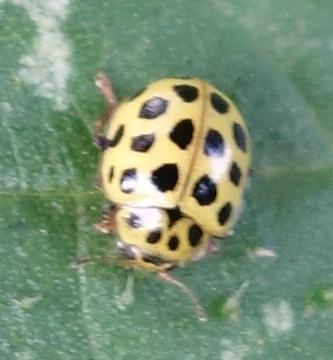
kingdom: Animalia
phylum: Arthropoda
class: Insecta
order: Coleoptera
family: Coccinellidae
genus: Psyllobora
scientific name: Psyllobora vigintiduopunctata
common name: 22-spot ladybird
